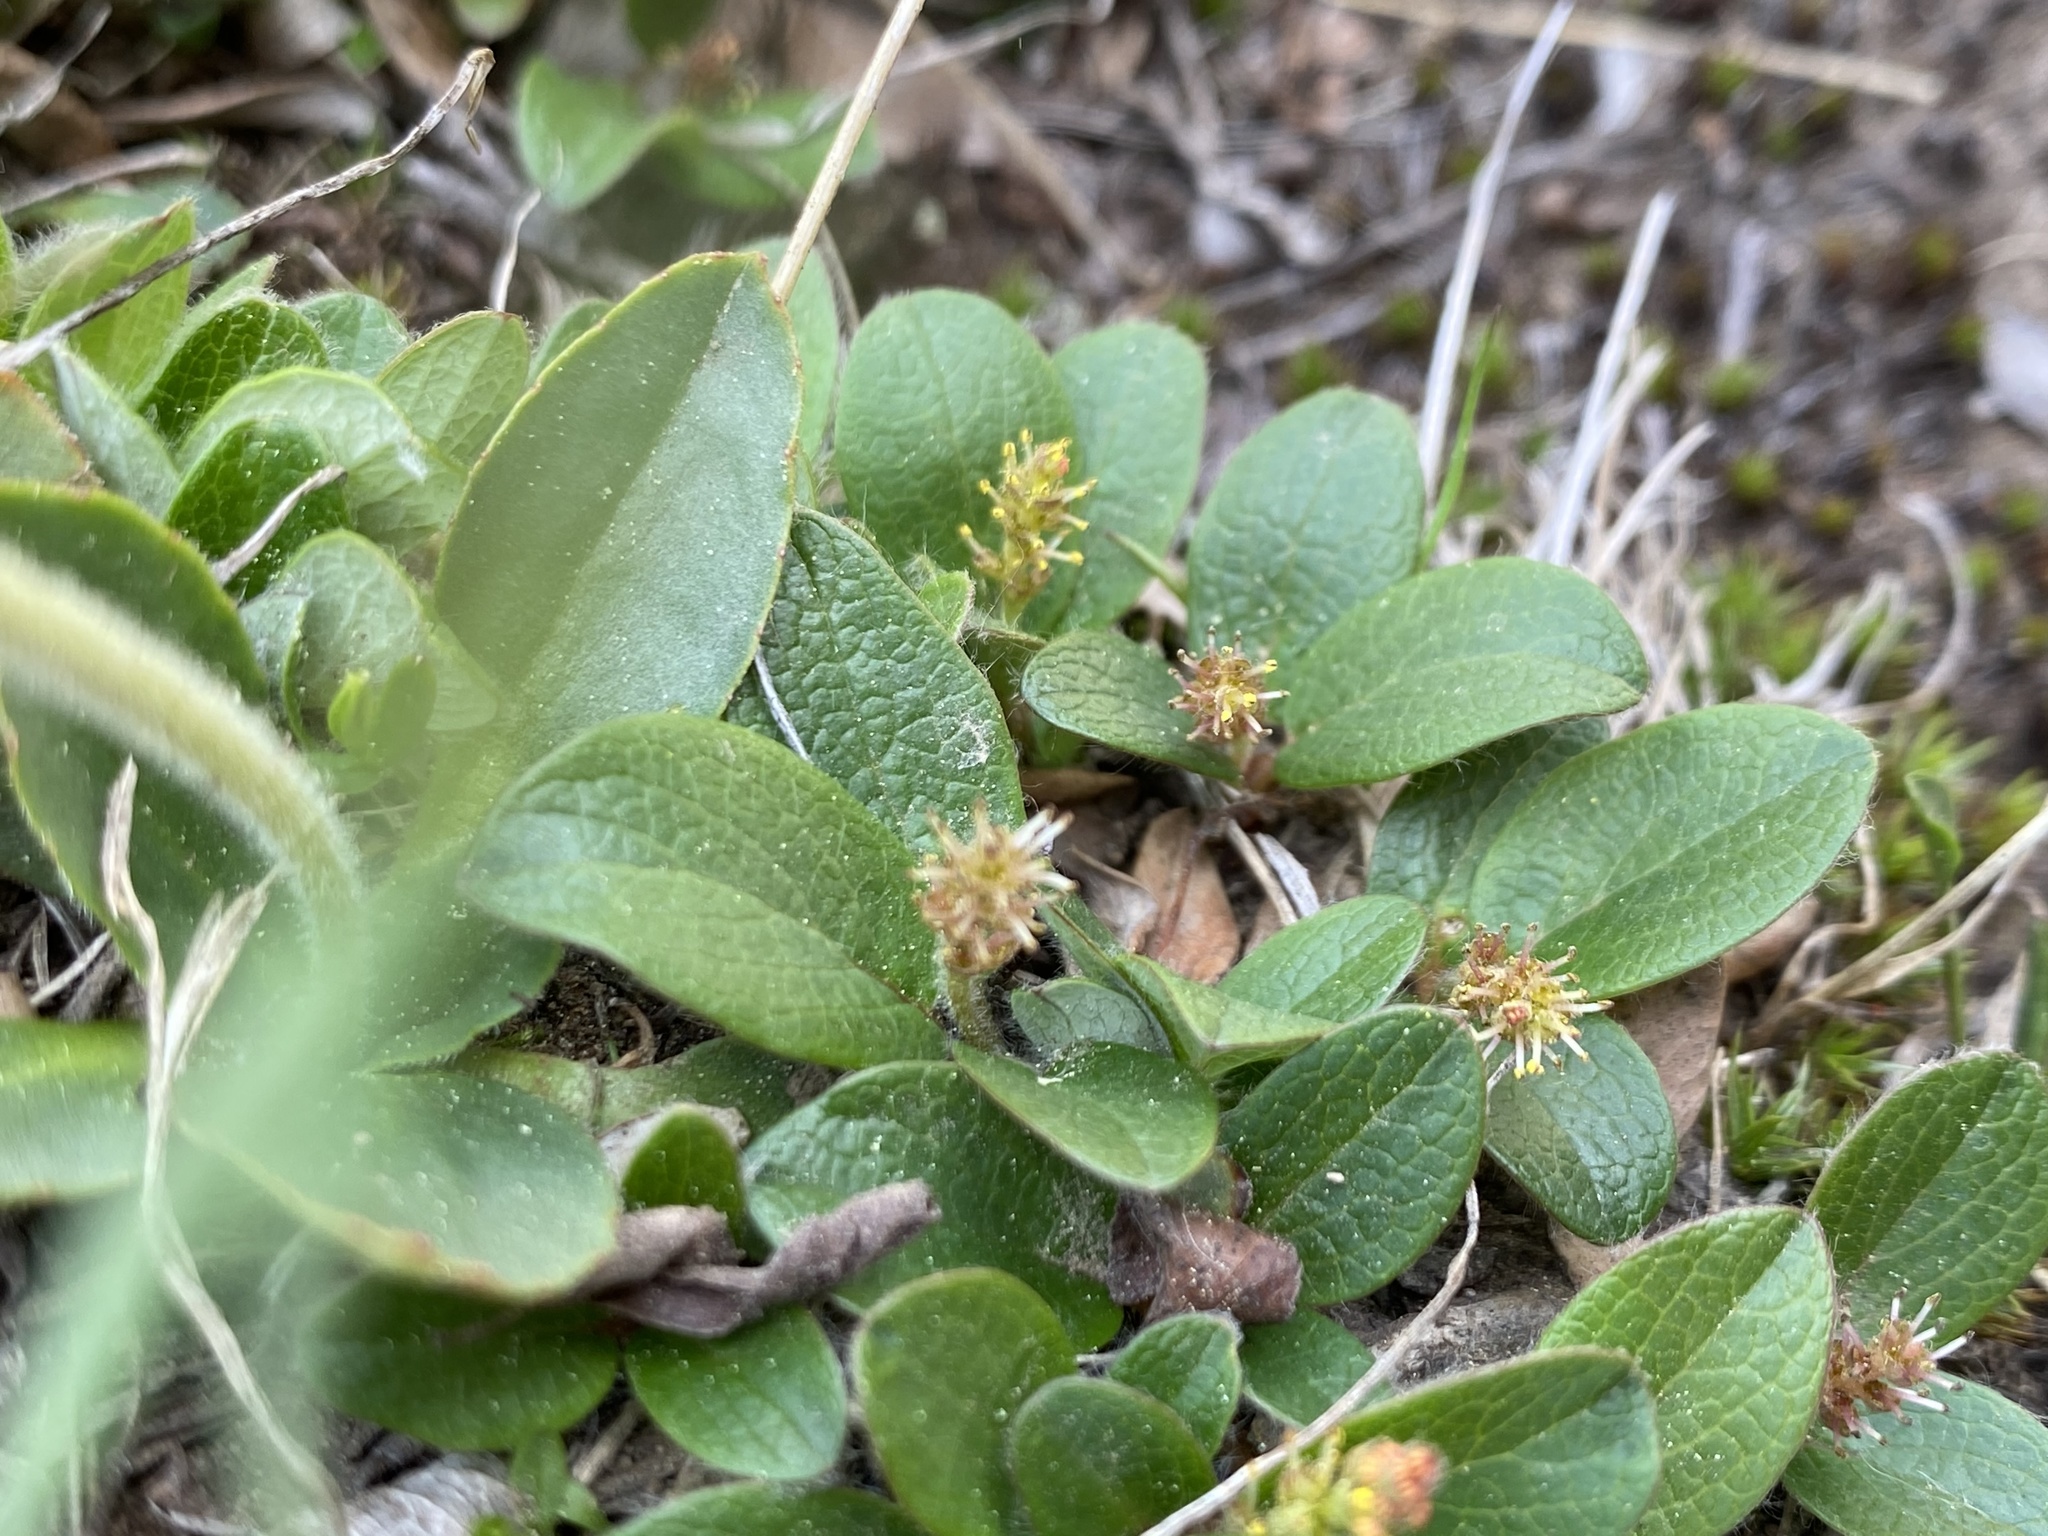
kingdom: Plantae
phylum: Tracheophyta
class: Magnoliopsida
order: Malpighiales
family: Salicaceae
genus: Salix
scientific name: Salix reticulata
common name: Net-leaved willow
